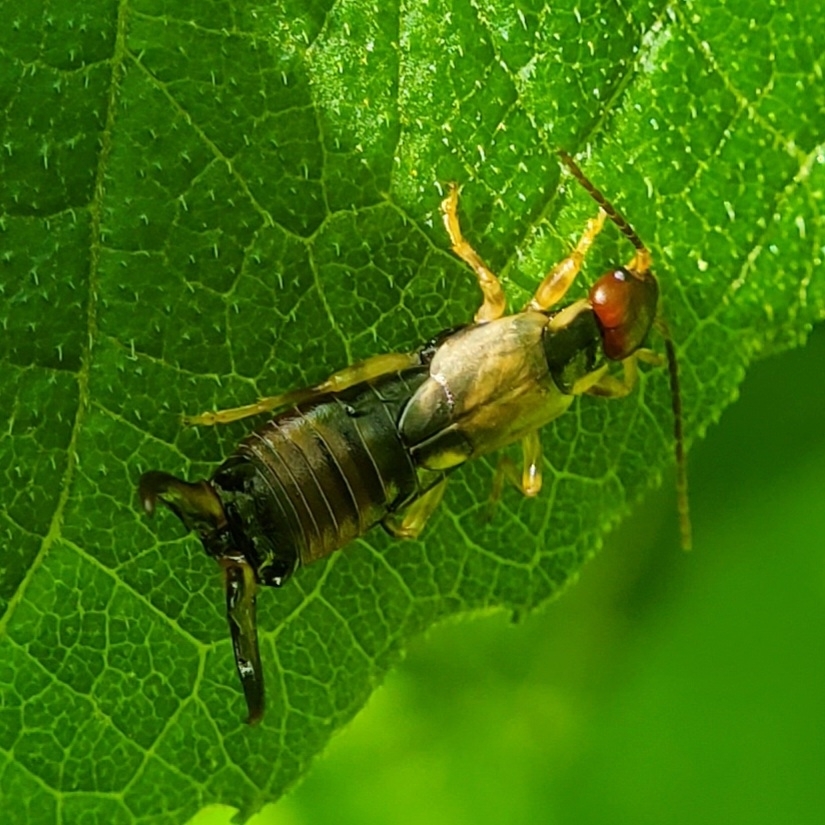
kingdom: Animalia
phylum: Arthropoda
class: Insecta
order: Dermaptera
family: Forficulidae
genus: Forficula
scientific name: Forficula
